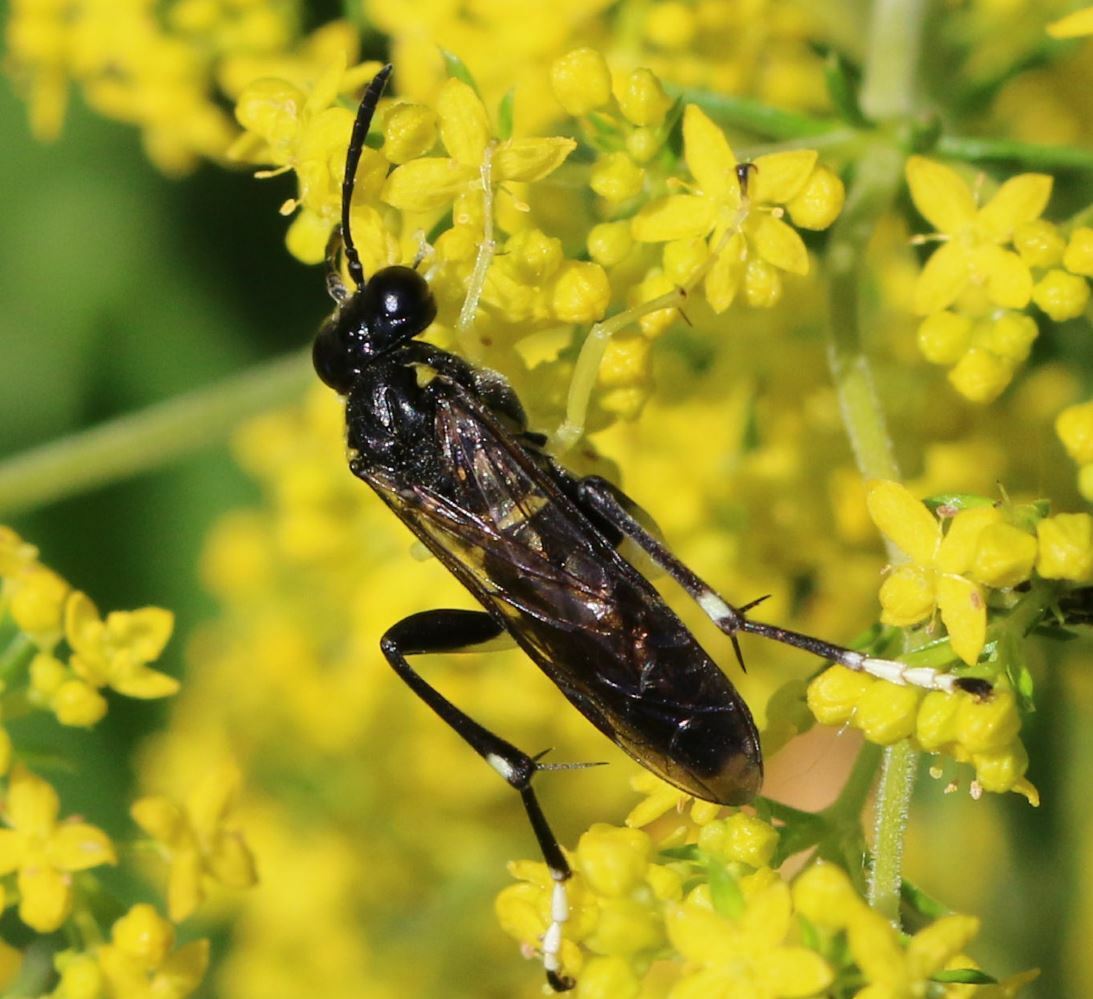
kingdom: Animalia
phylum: Arthropoda
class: Insecta
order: Hymenoptera
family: Tenthredinidae
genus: Macrophya
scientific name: Macrophya montana
